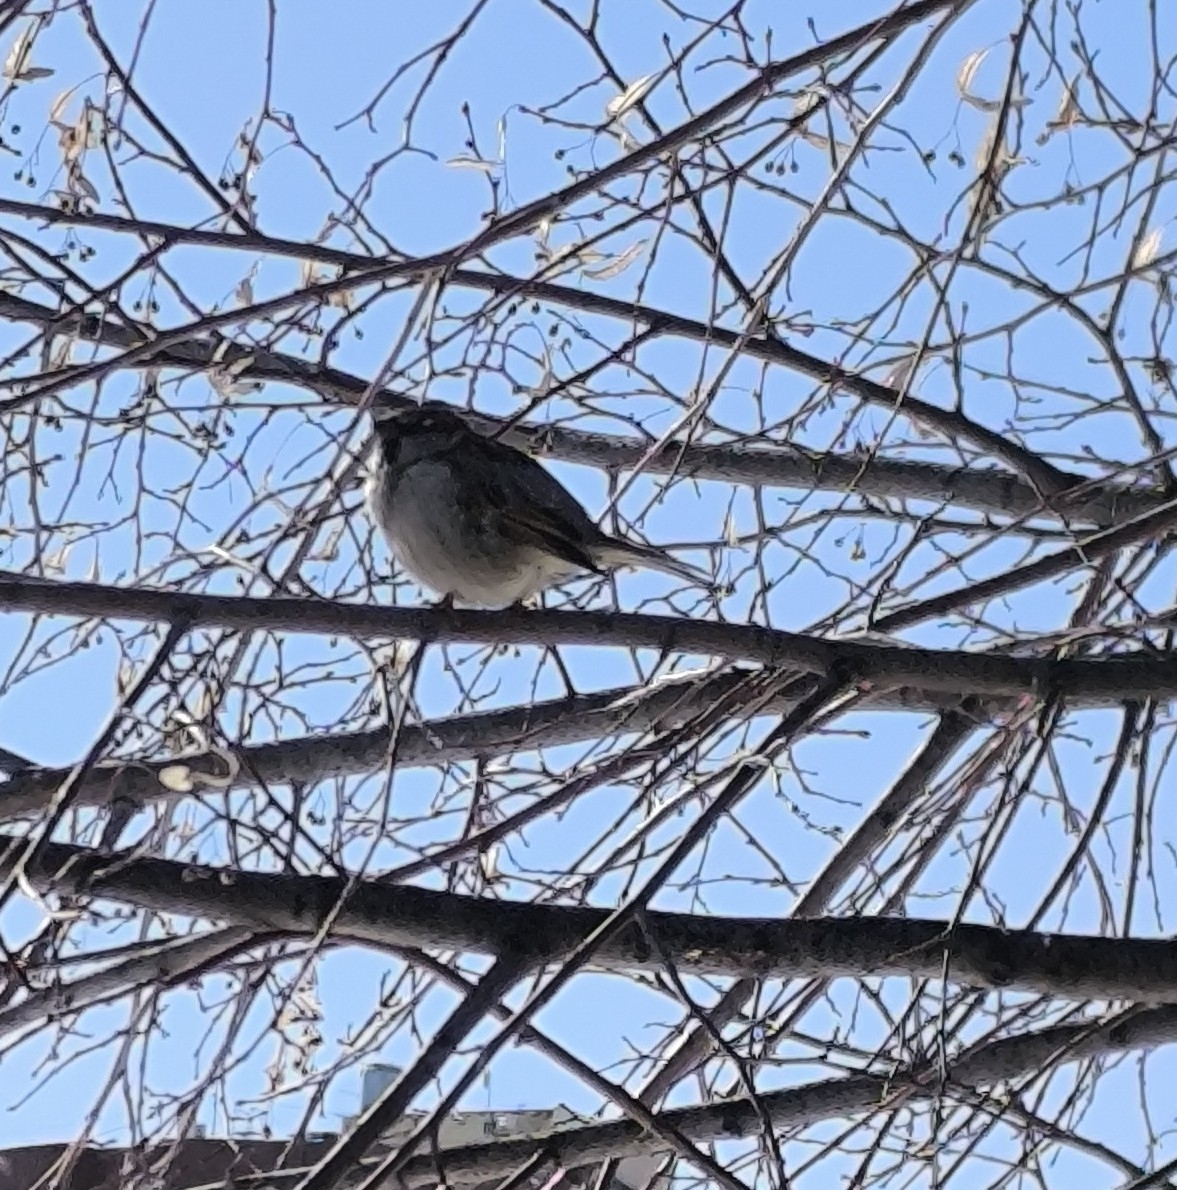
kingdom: Animalia
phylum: Chordata
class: Aves
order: Passeriformes
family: Passeridae
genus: Passer
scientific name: Passer domesticus
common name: House sparrow
